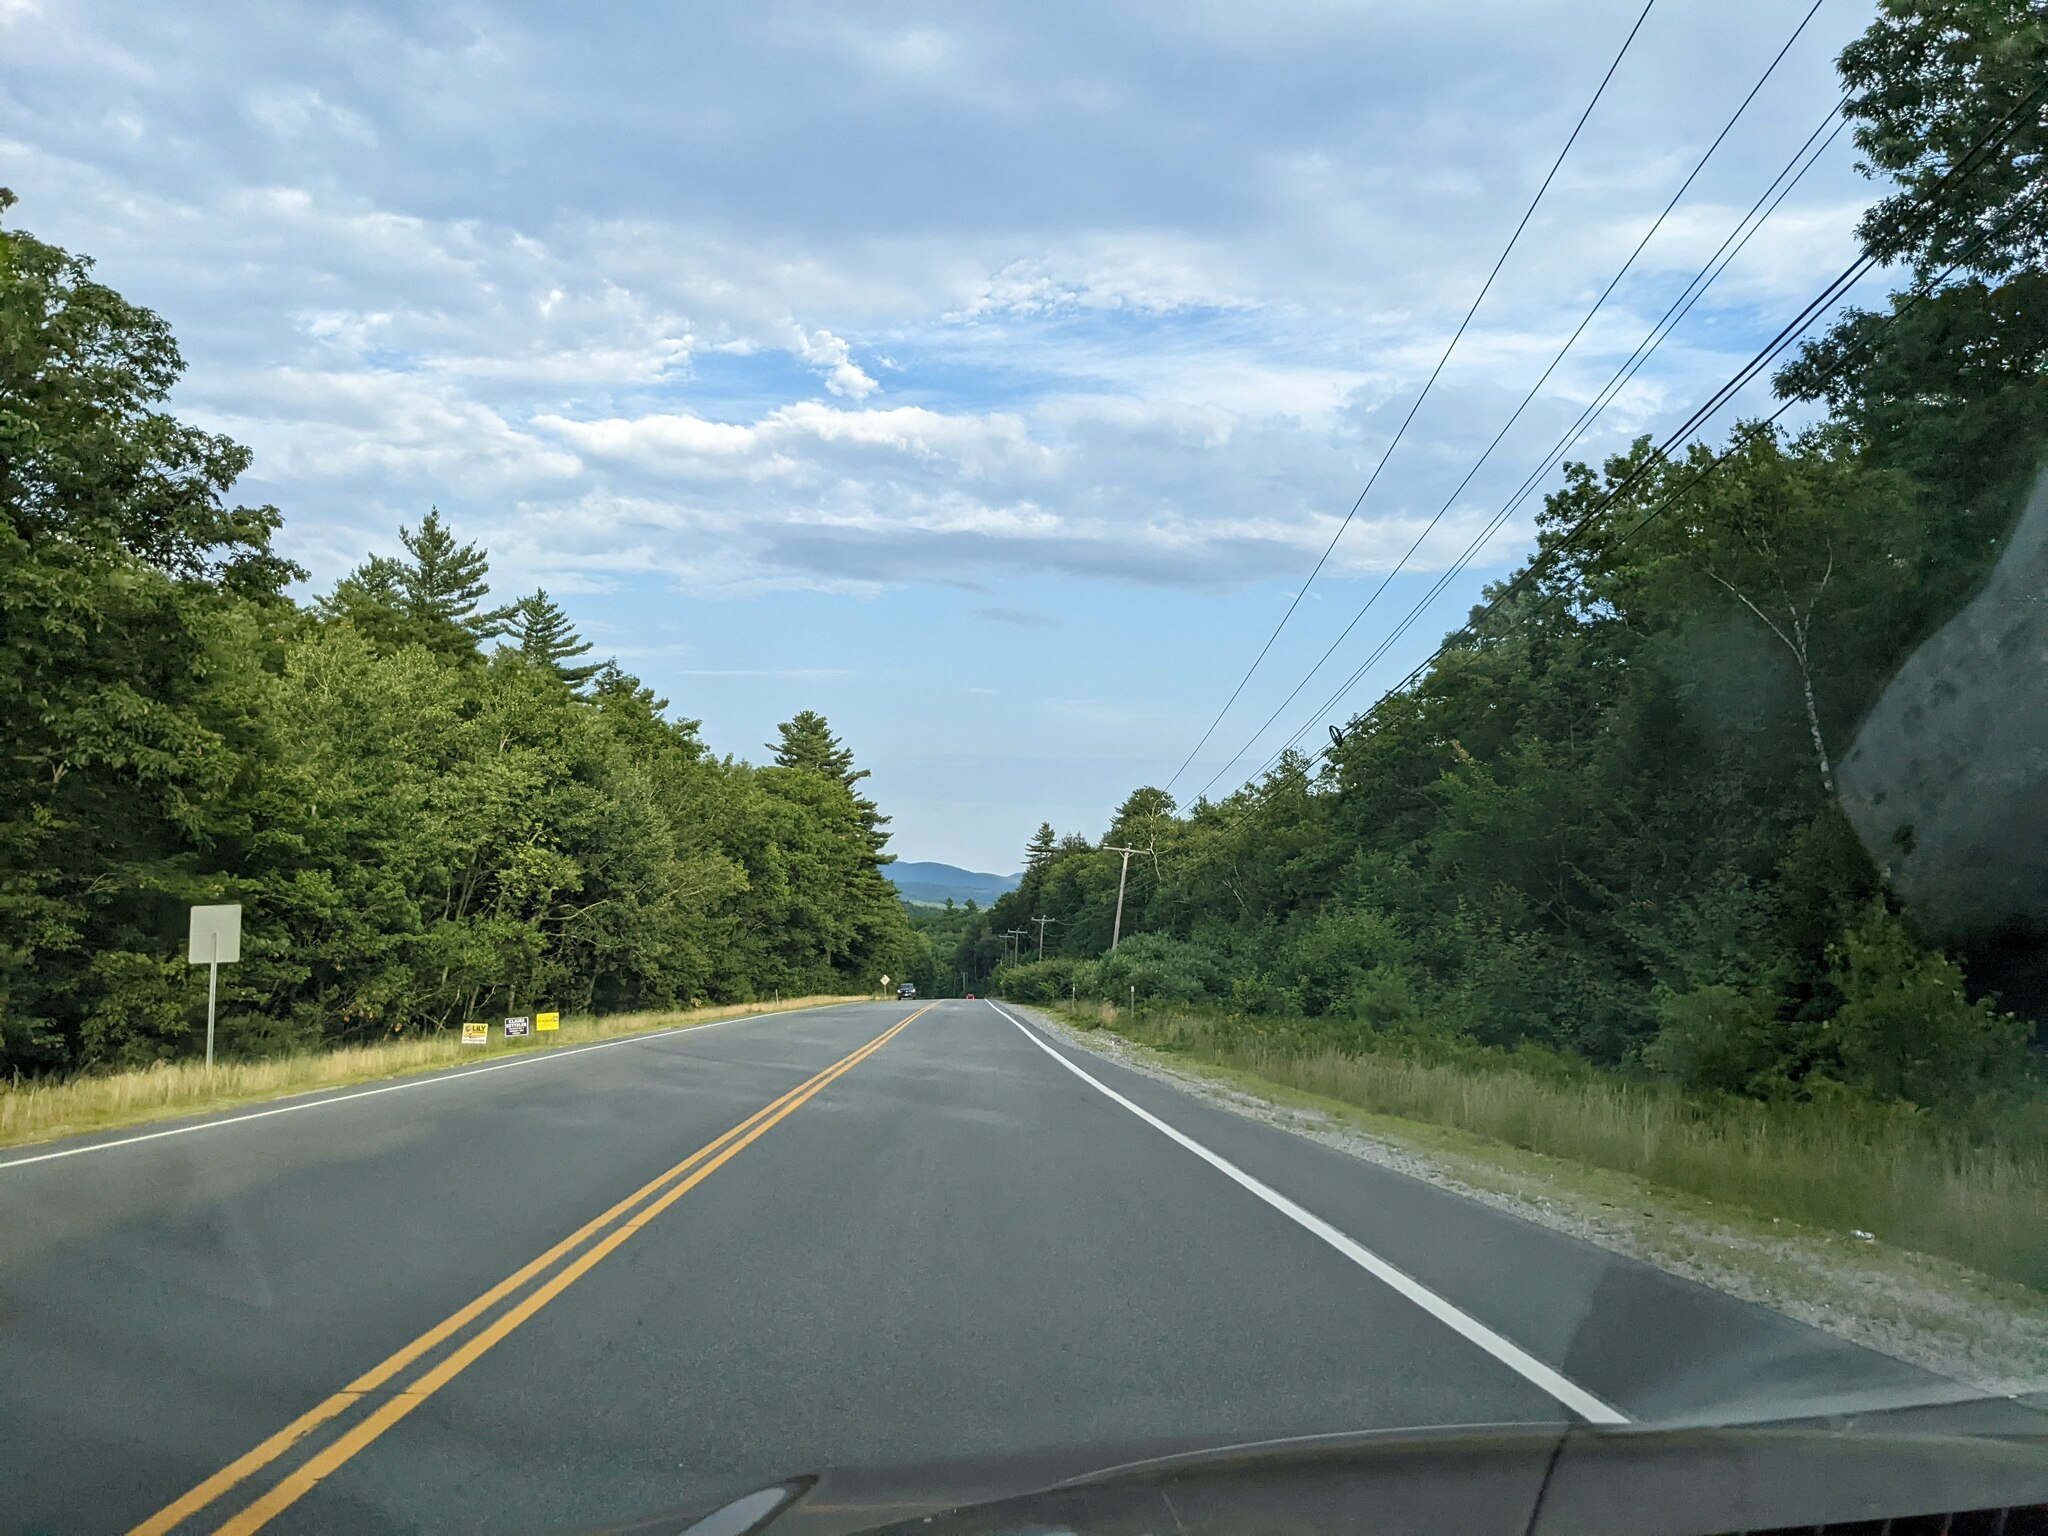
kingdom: Plantae
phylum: Tracheophyta
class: Pinopsida
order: Pinales
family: Pinaceae
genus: Pinus
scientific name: Pinus strobus
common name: Weymouth pine
